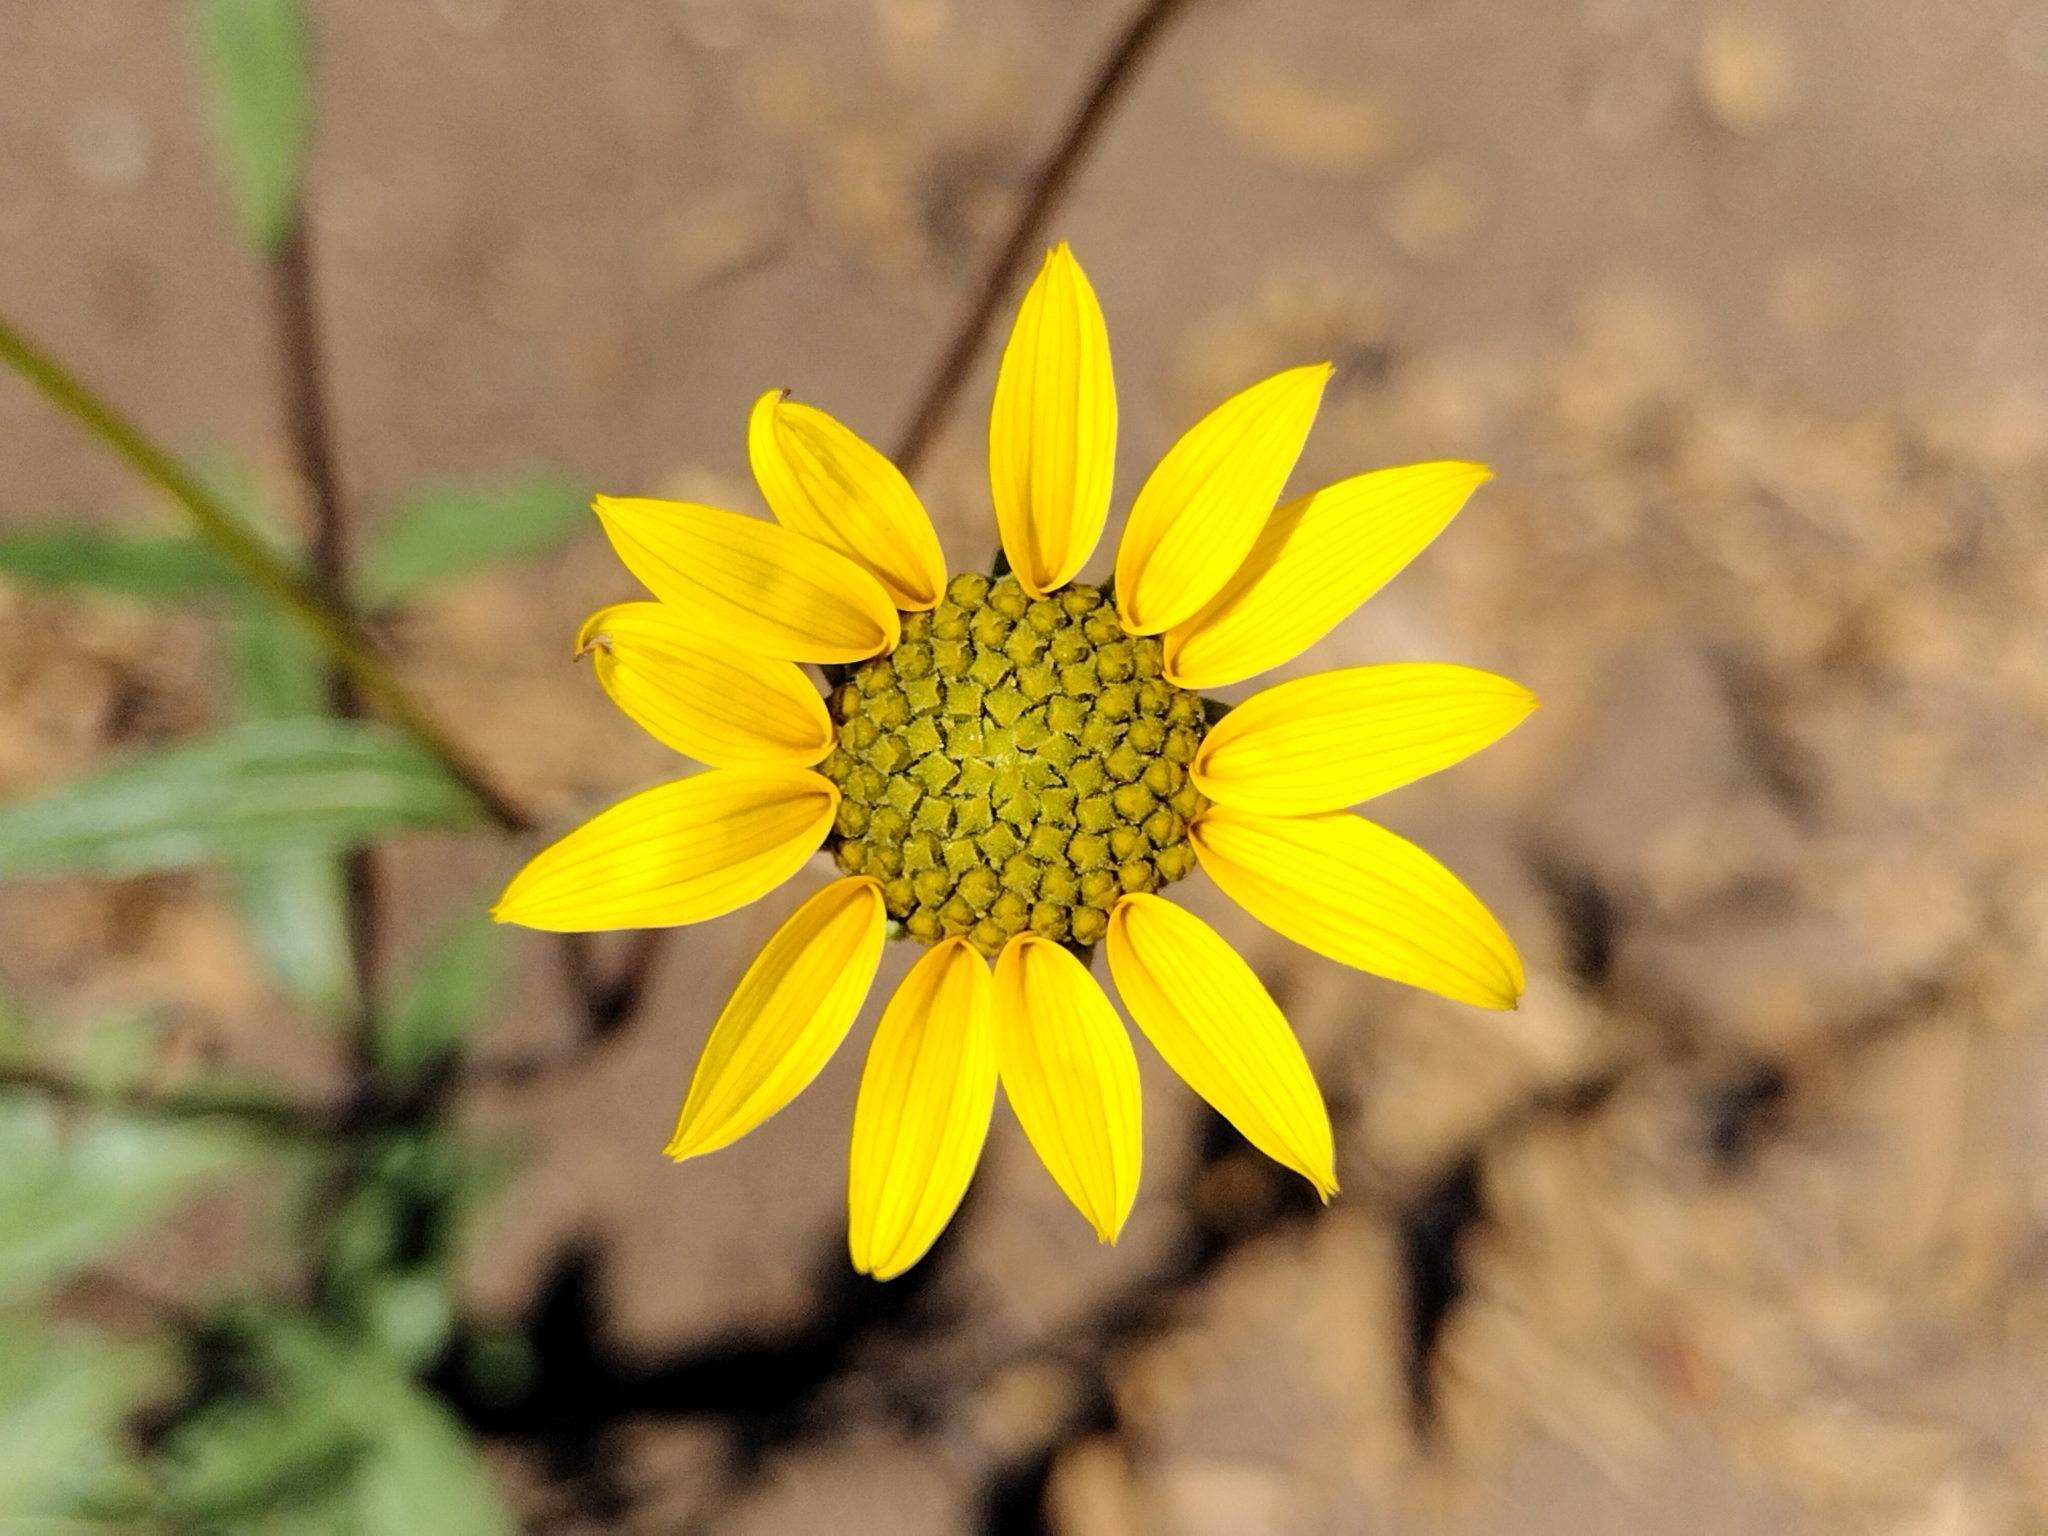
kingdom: Plantae
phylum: Tracheophyta
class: Magnoliopsida
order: Asterales
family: Asteraceae
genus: Helianthus
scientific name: Helianthus gracilentus
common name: Slender sunflower
